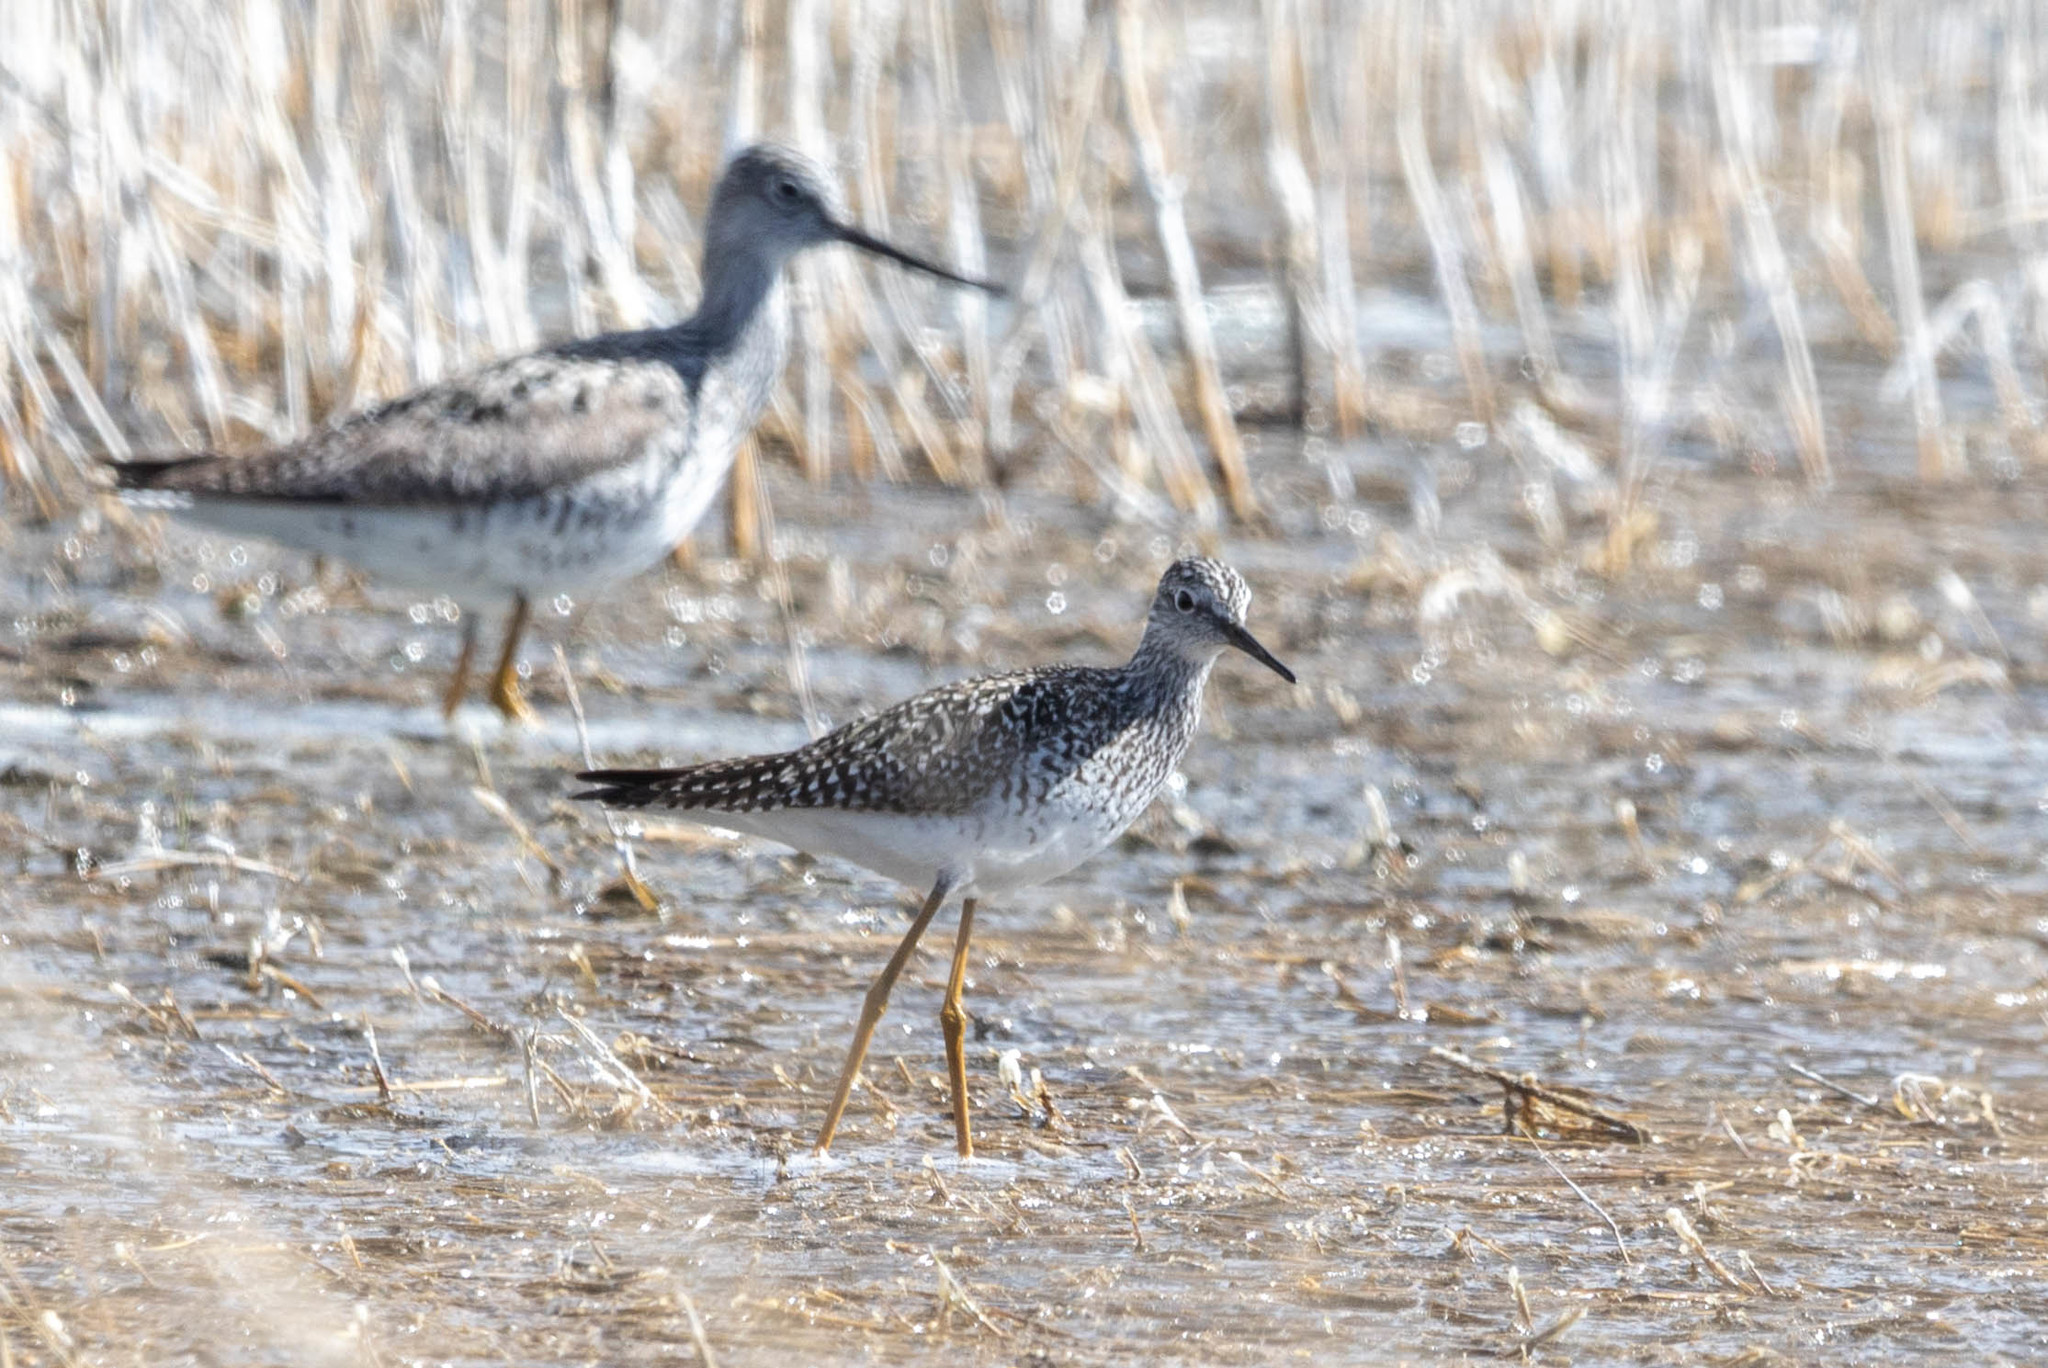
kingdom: Animalia
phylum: Chordata
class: Aves
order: Charadriiformes
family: Scolopacidae
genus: Tringa
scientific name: Tringa flavipes
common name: Lesser yellowlegs
